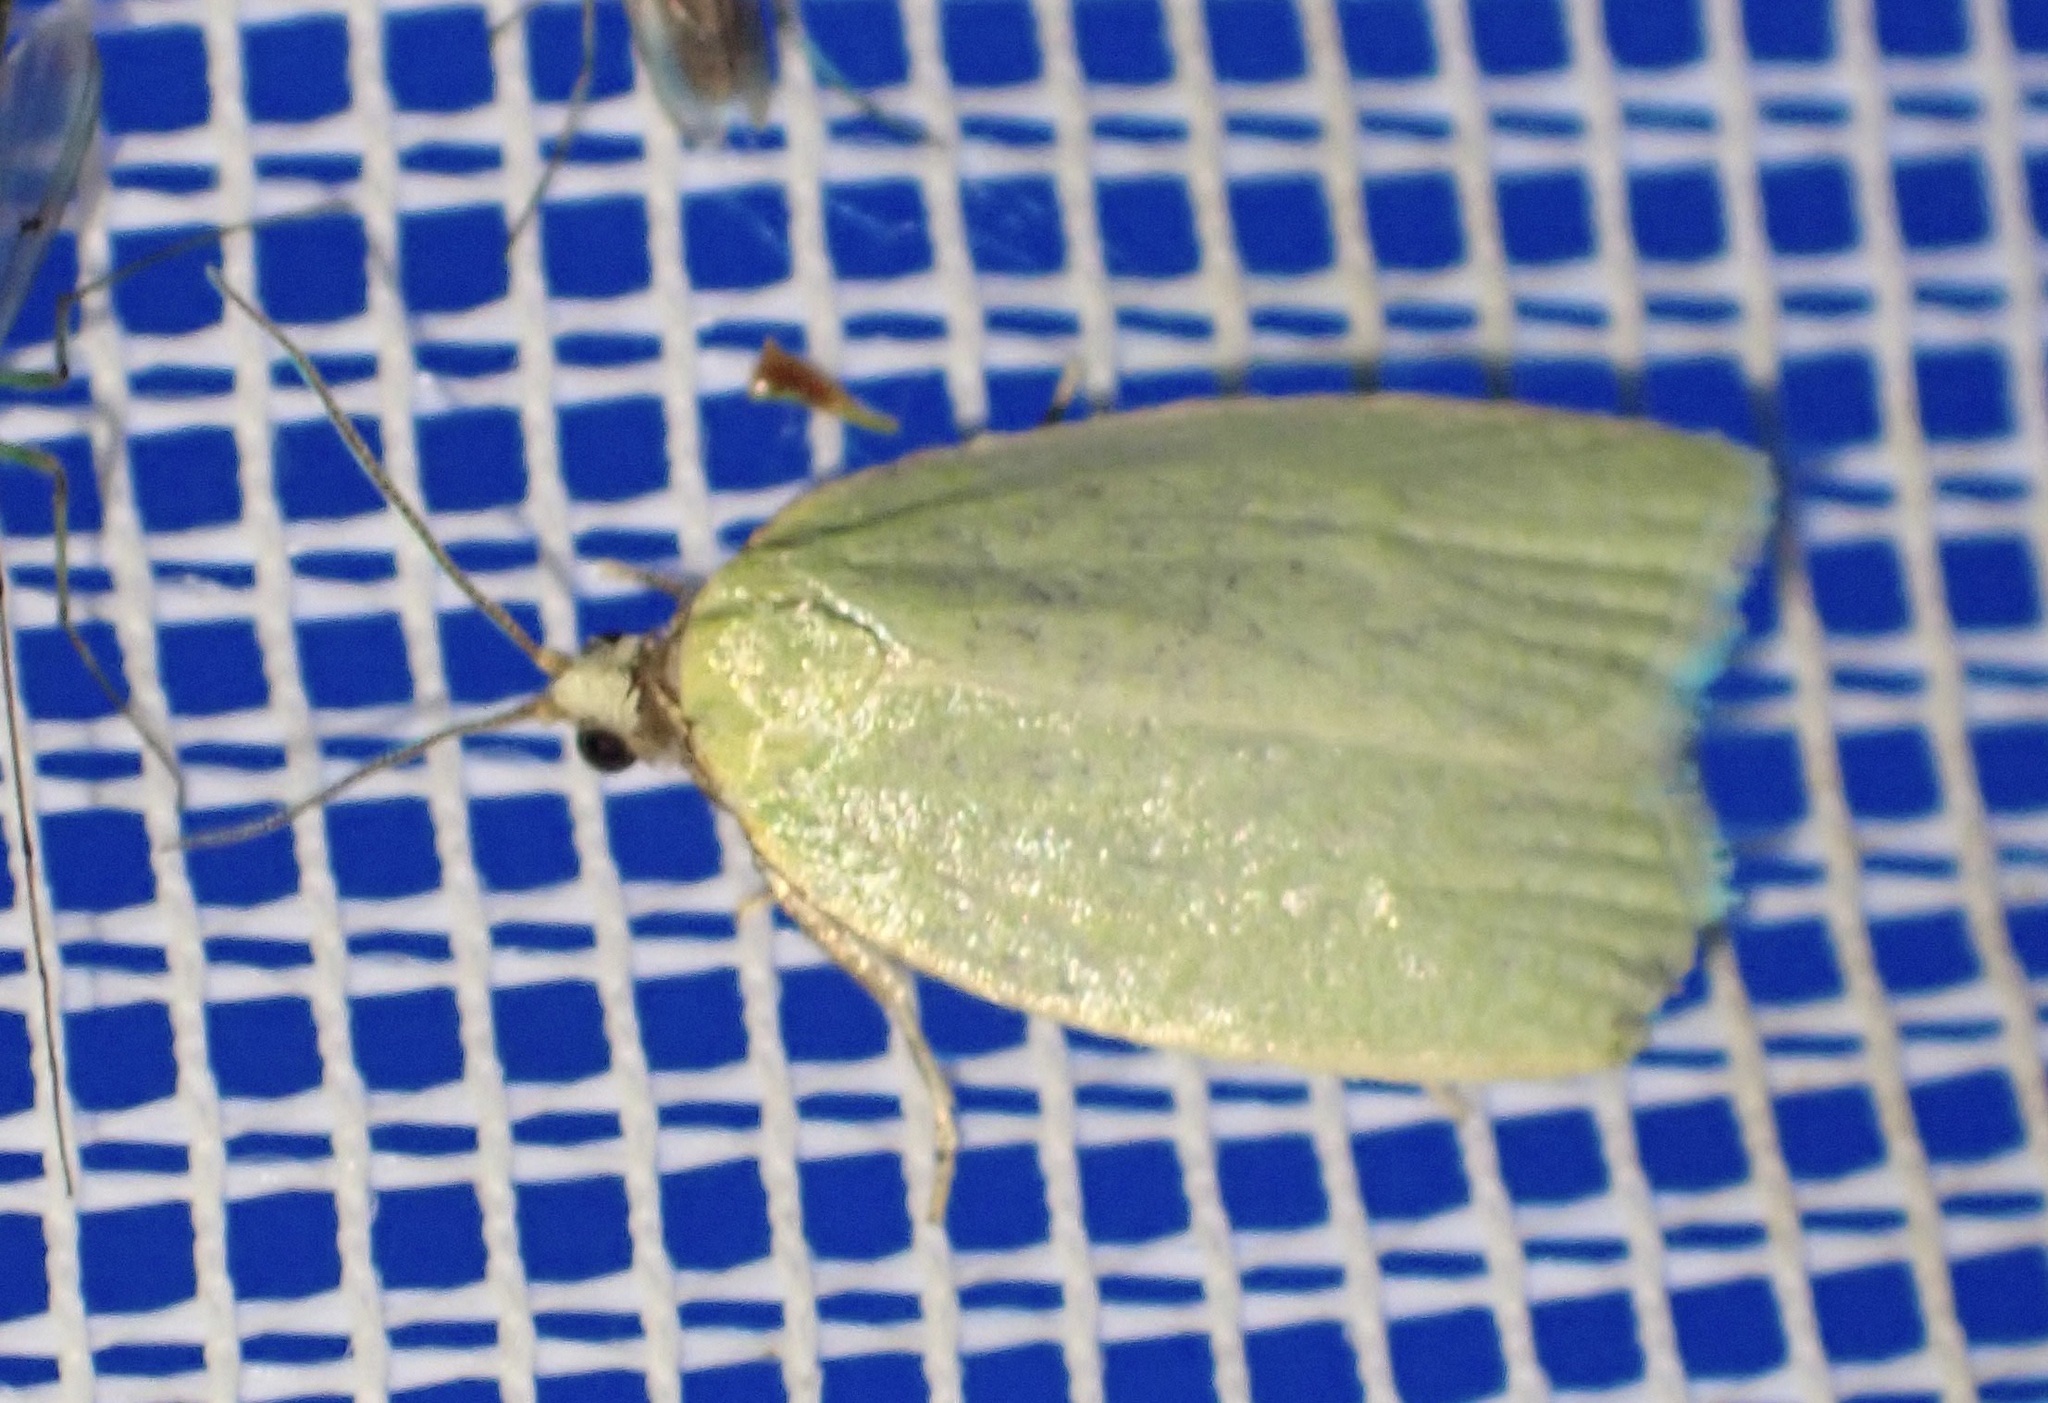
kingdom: Animalia
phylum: Arthropoda
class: Insecta
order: Lepidoptera
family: Tortricidae
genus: Tortrix
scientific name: Tortrix viridana
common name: Green oak tortrix
